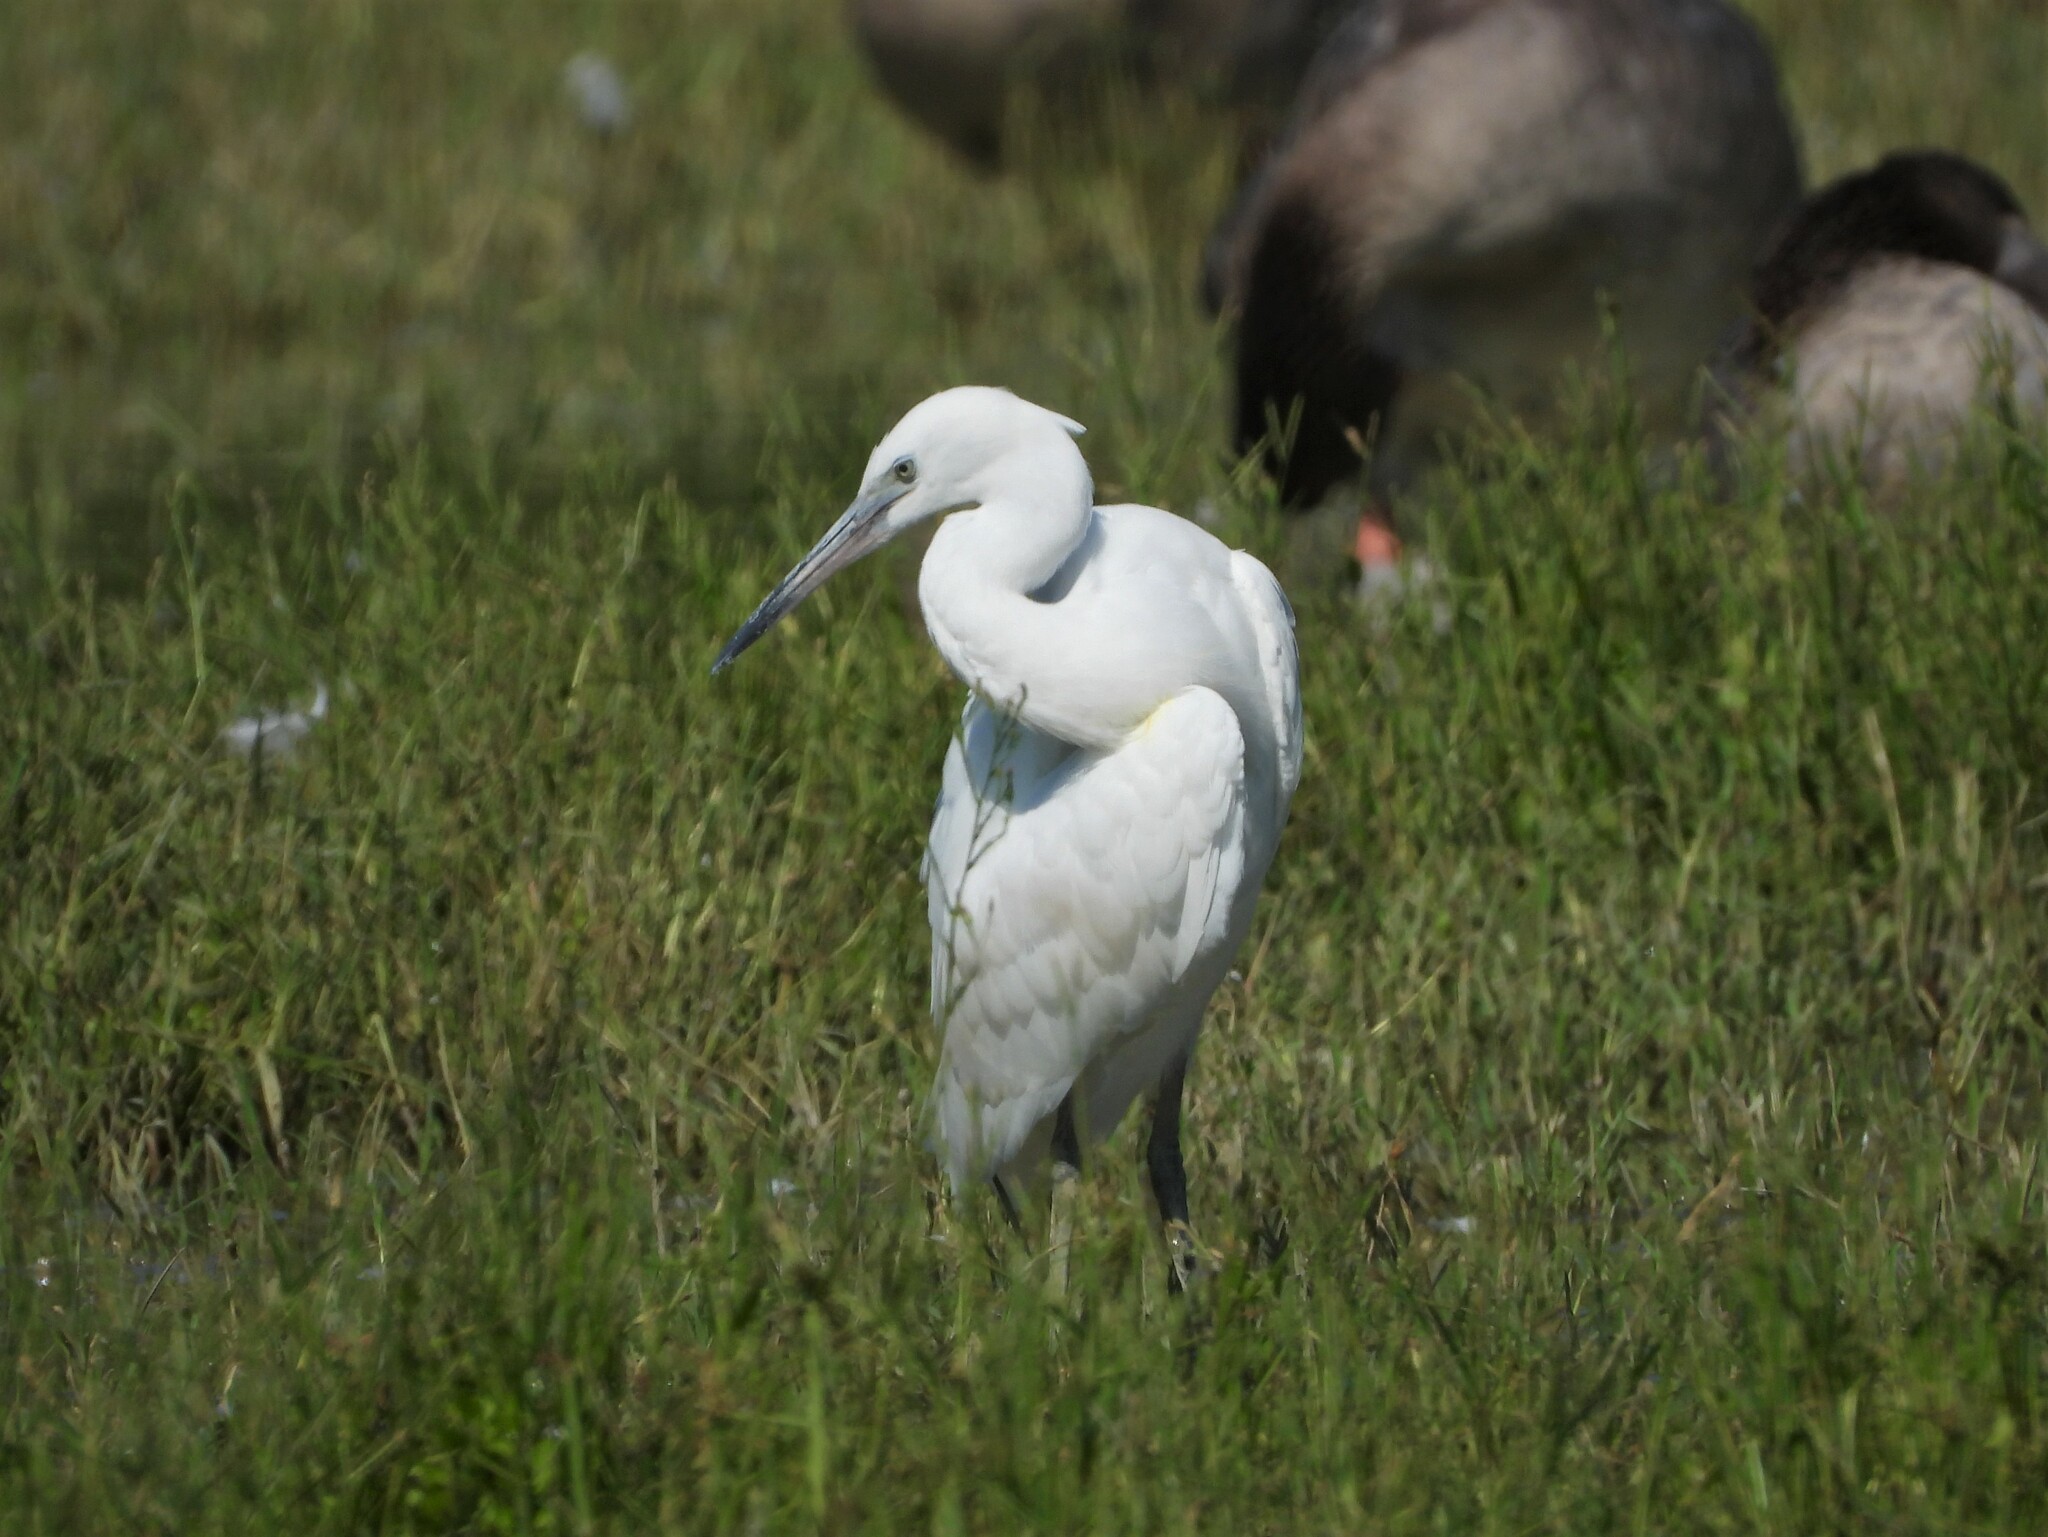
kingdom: Animalia
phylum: Chordata
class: Aves
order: Pelecaniformes
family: Ardeidae
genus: Egretta
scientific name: Egretta garzetta
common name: Little egret
